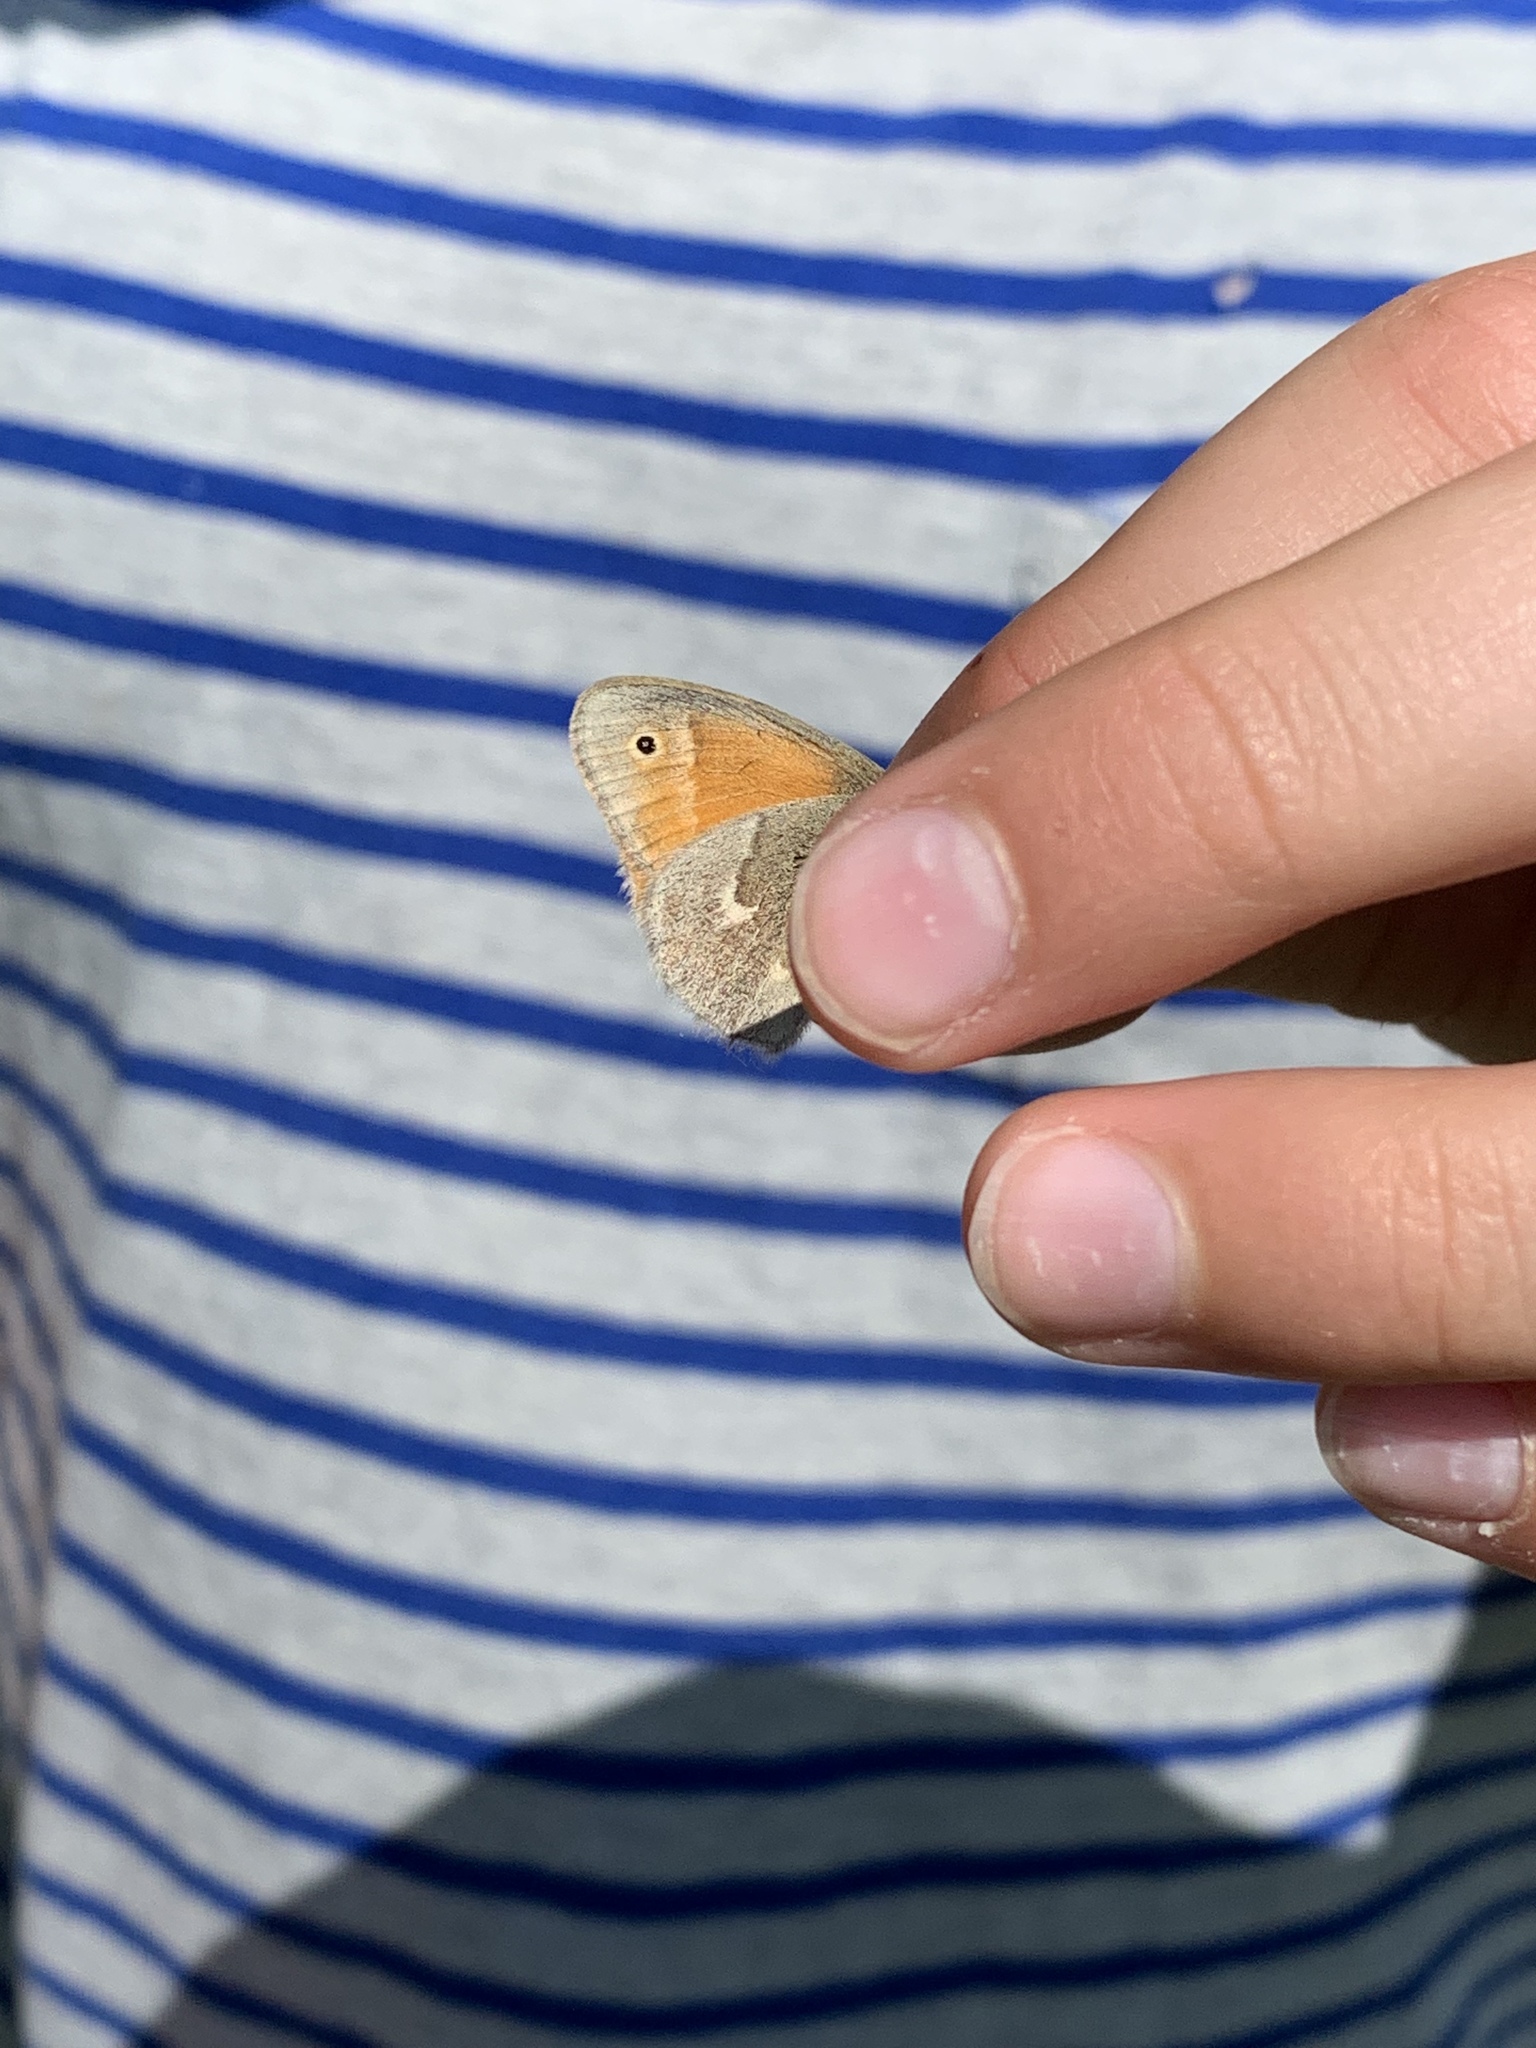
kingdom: Animalia
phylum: Arthropoda
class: Insecta
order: Lepidoptera
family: Nymphalidae
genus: Coenonympha
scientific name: Coenonympha california
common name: Common ringlet
